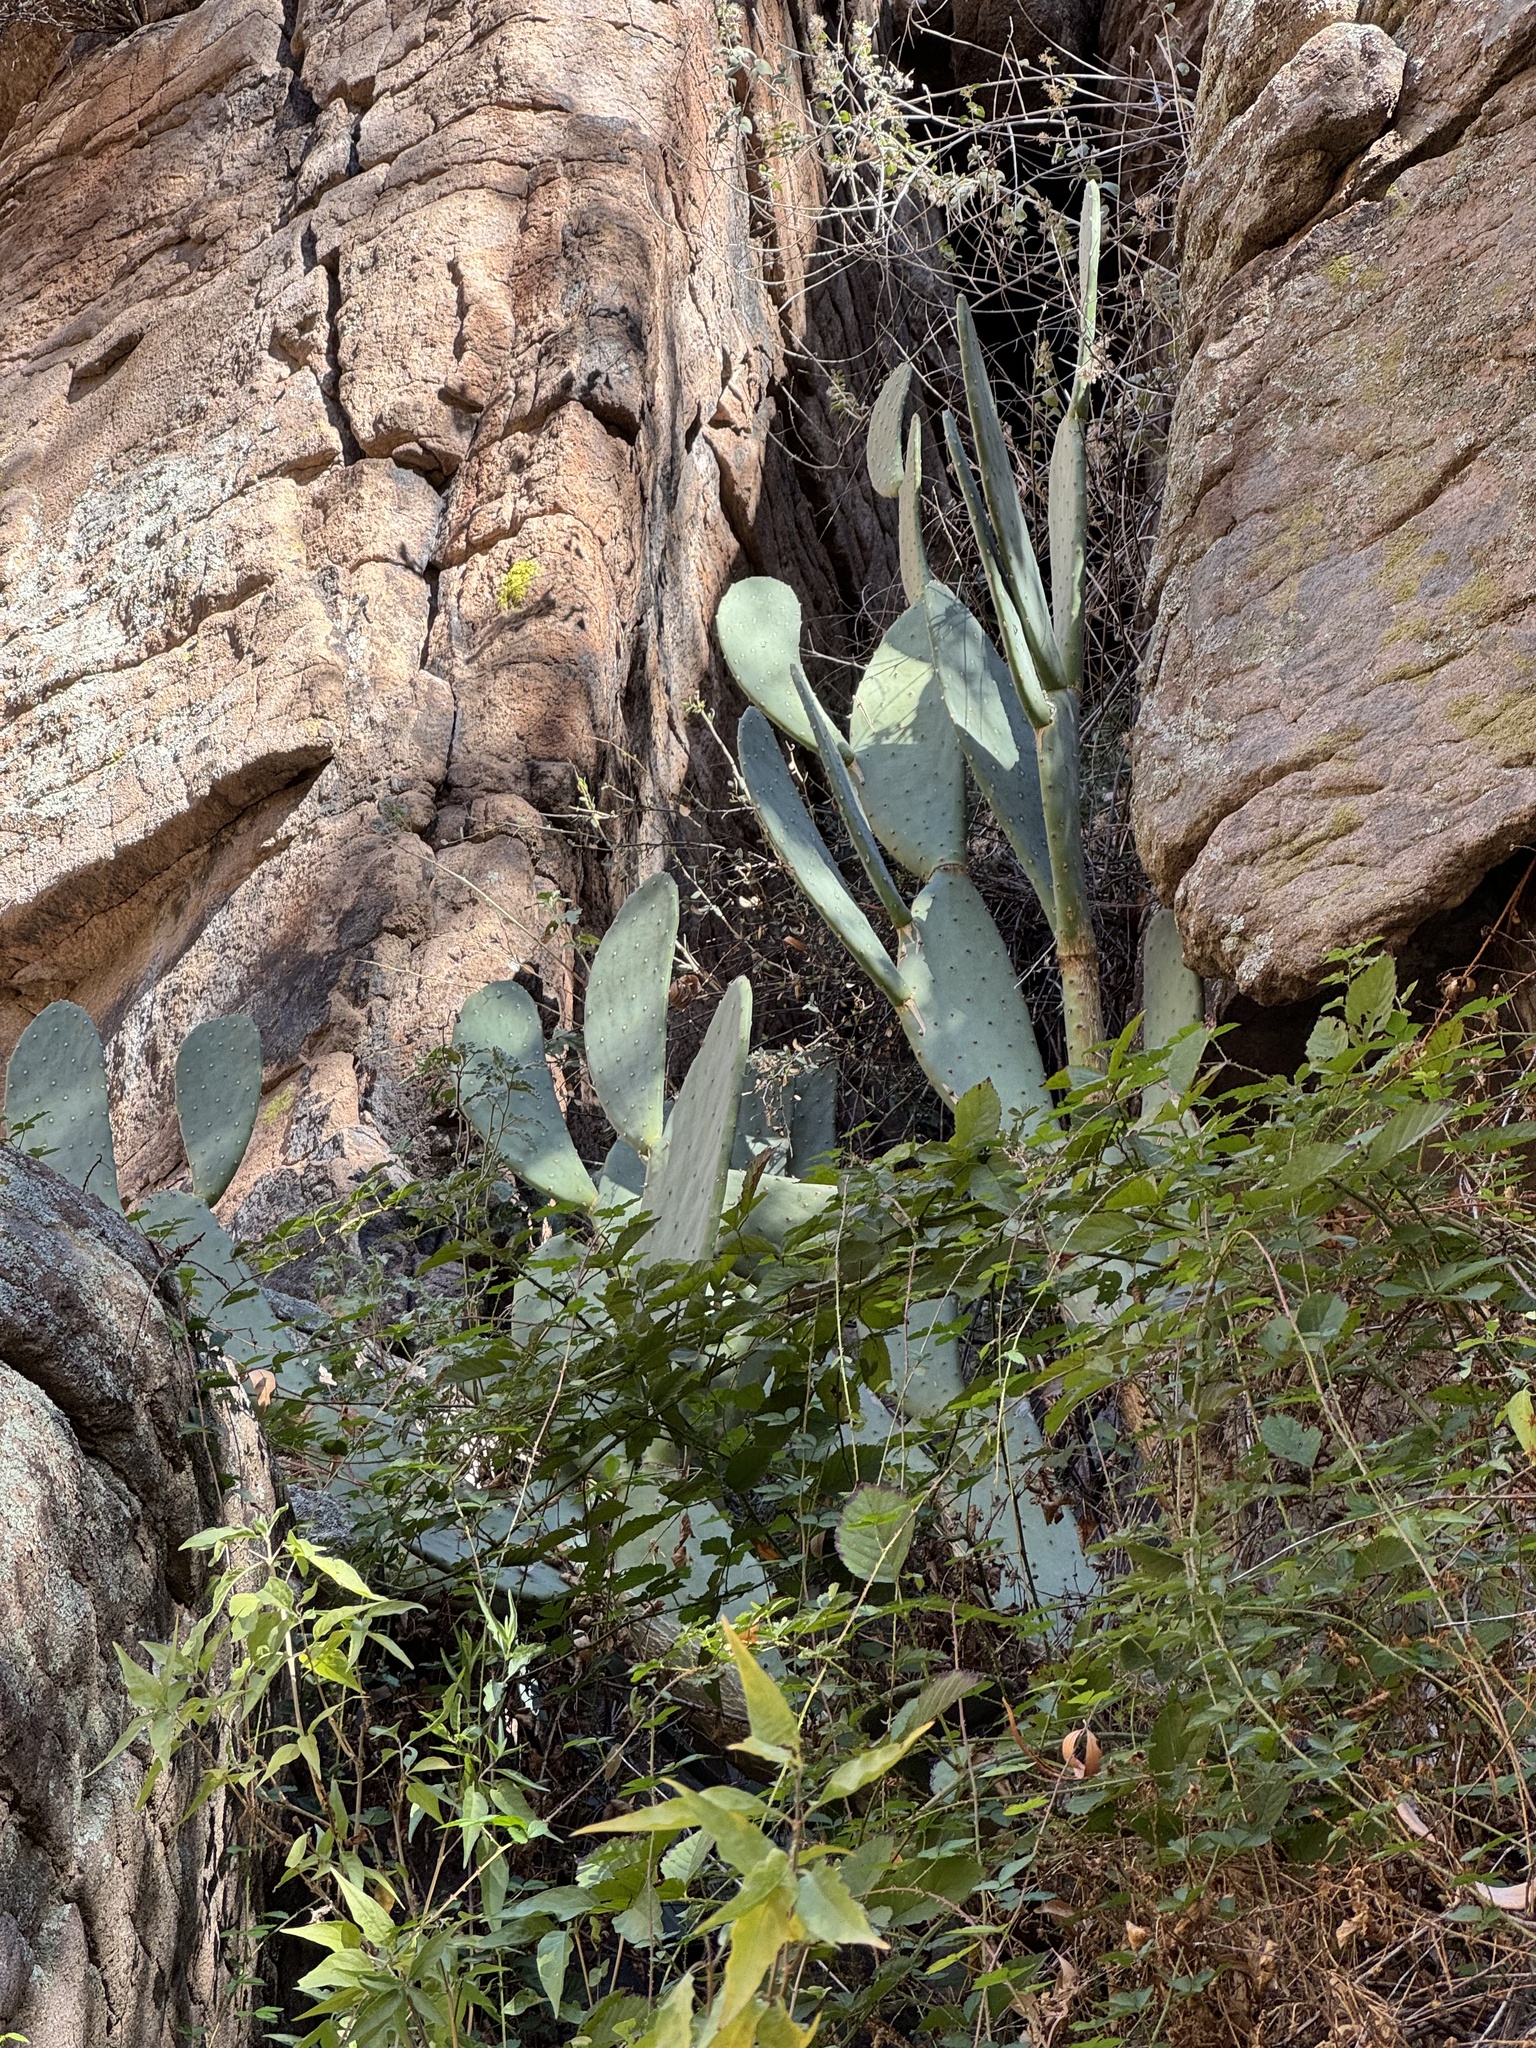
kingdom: Plantae
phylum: Tracheophyta
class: Magnoliopsida
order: Caryophyllales
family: Cactaceae
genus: Opuntia
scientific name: Opuntia engelmannii
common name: Cactus-apple
